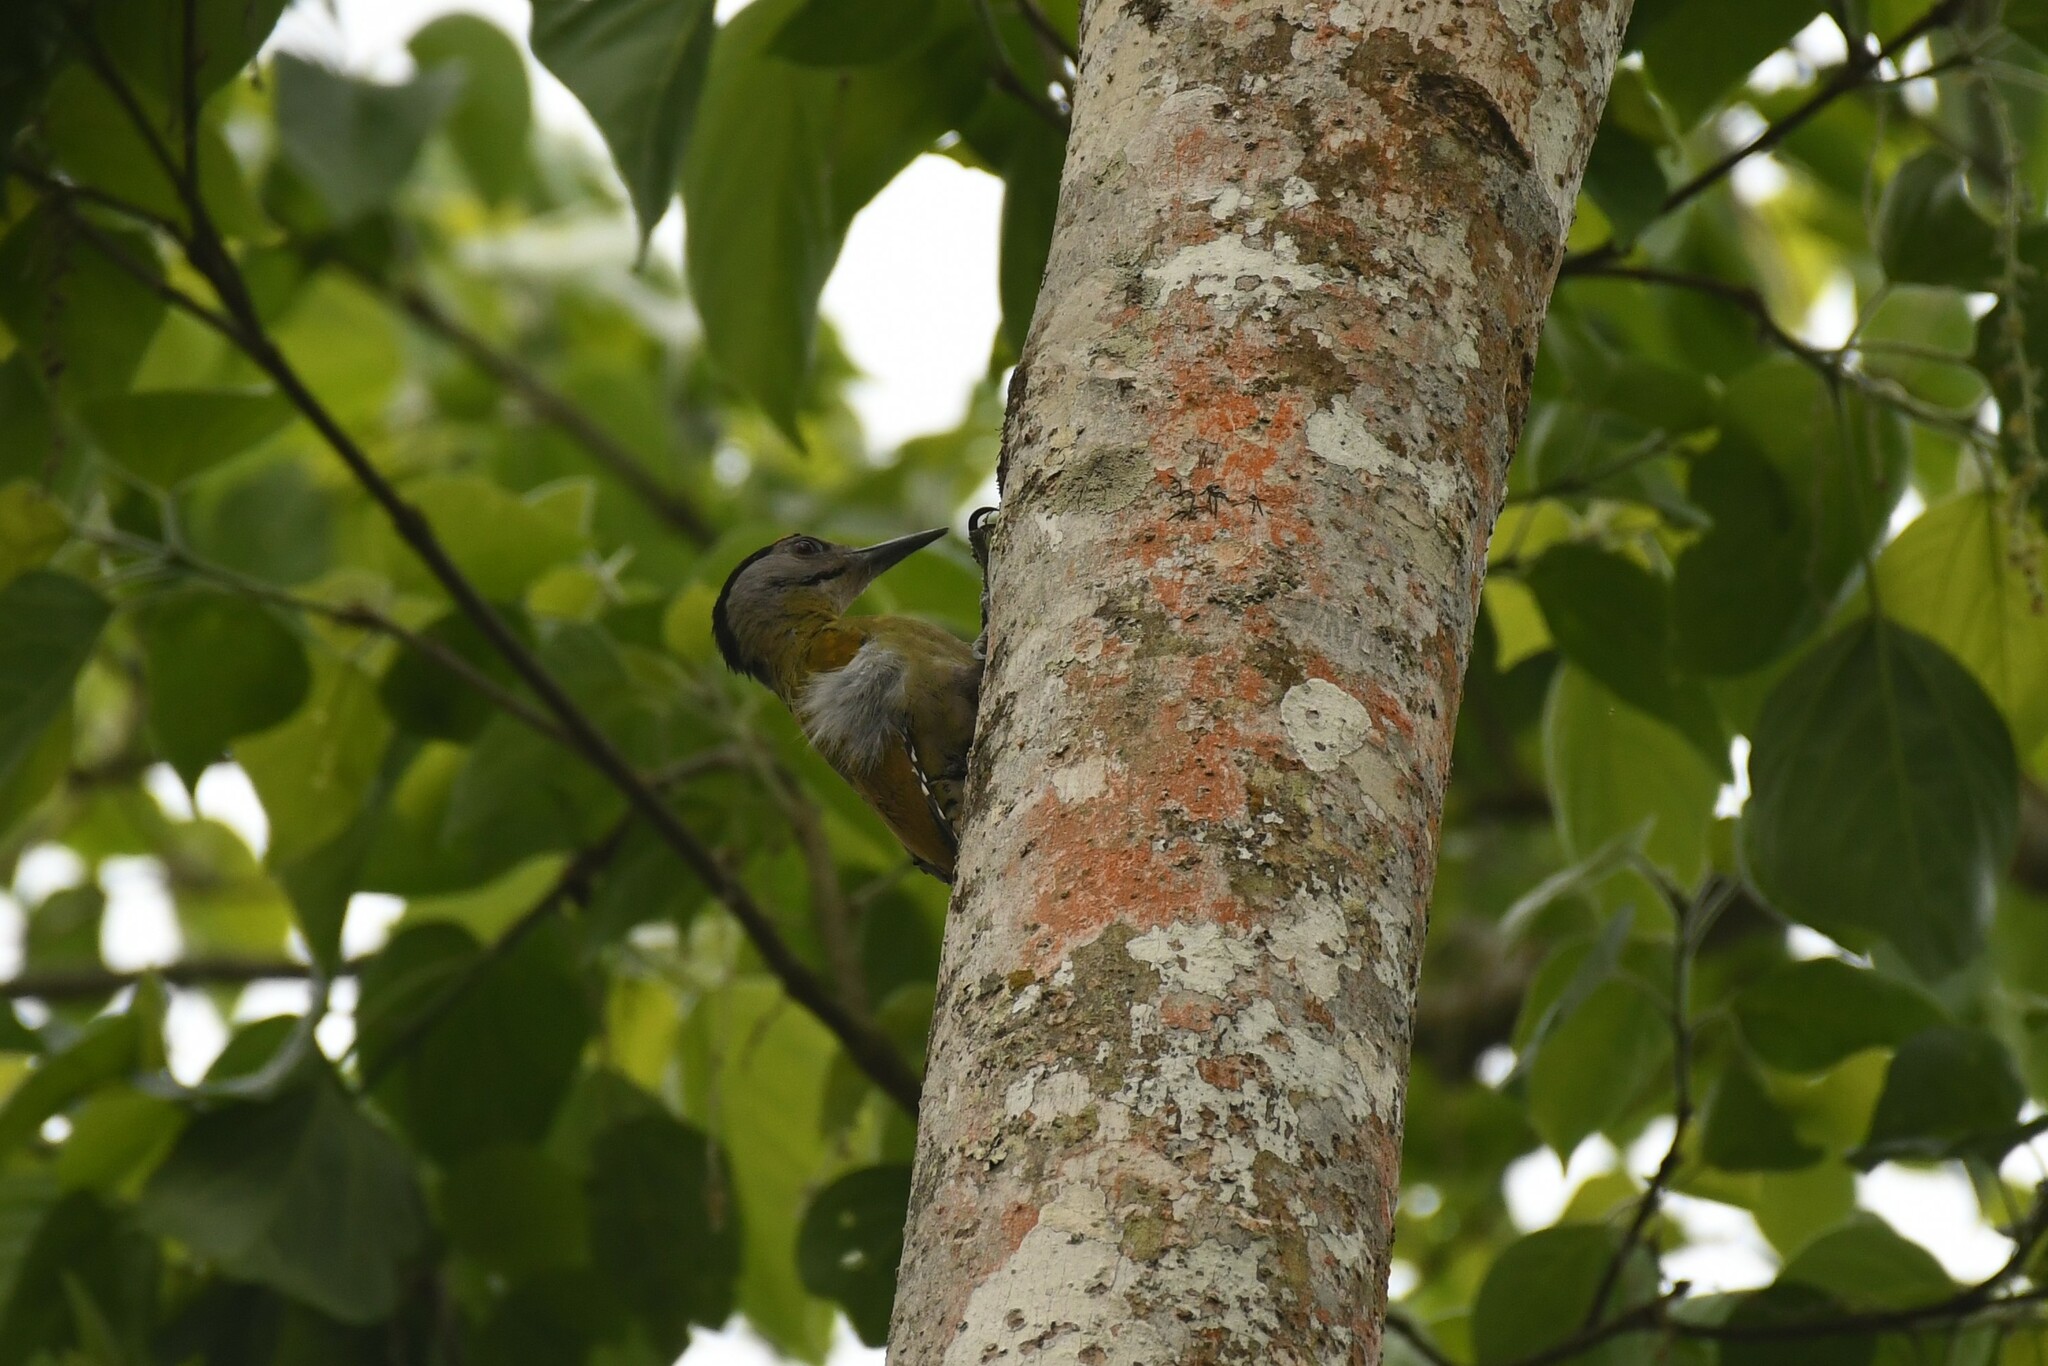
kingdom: Animalia
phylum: Chordata
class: Aves
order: Piciformes
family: Picidae
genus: Picus
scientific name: Picus canus
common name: Grey-headed woodpecker
